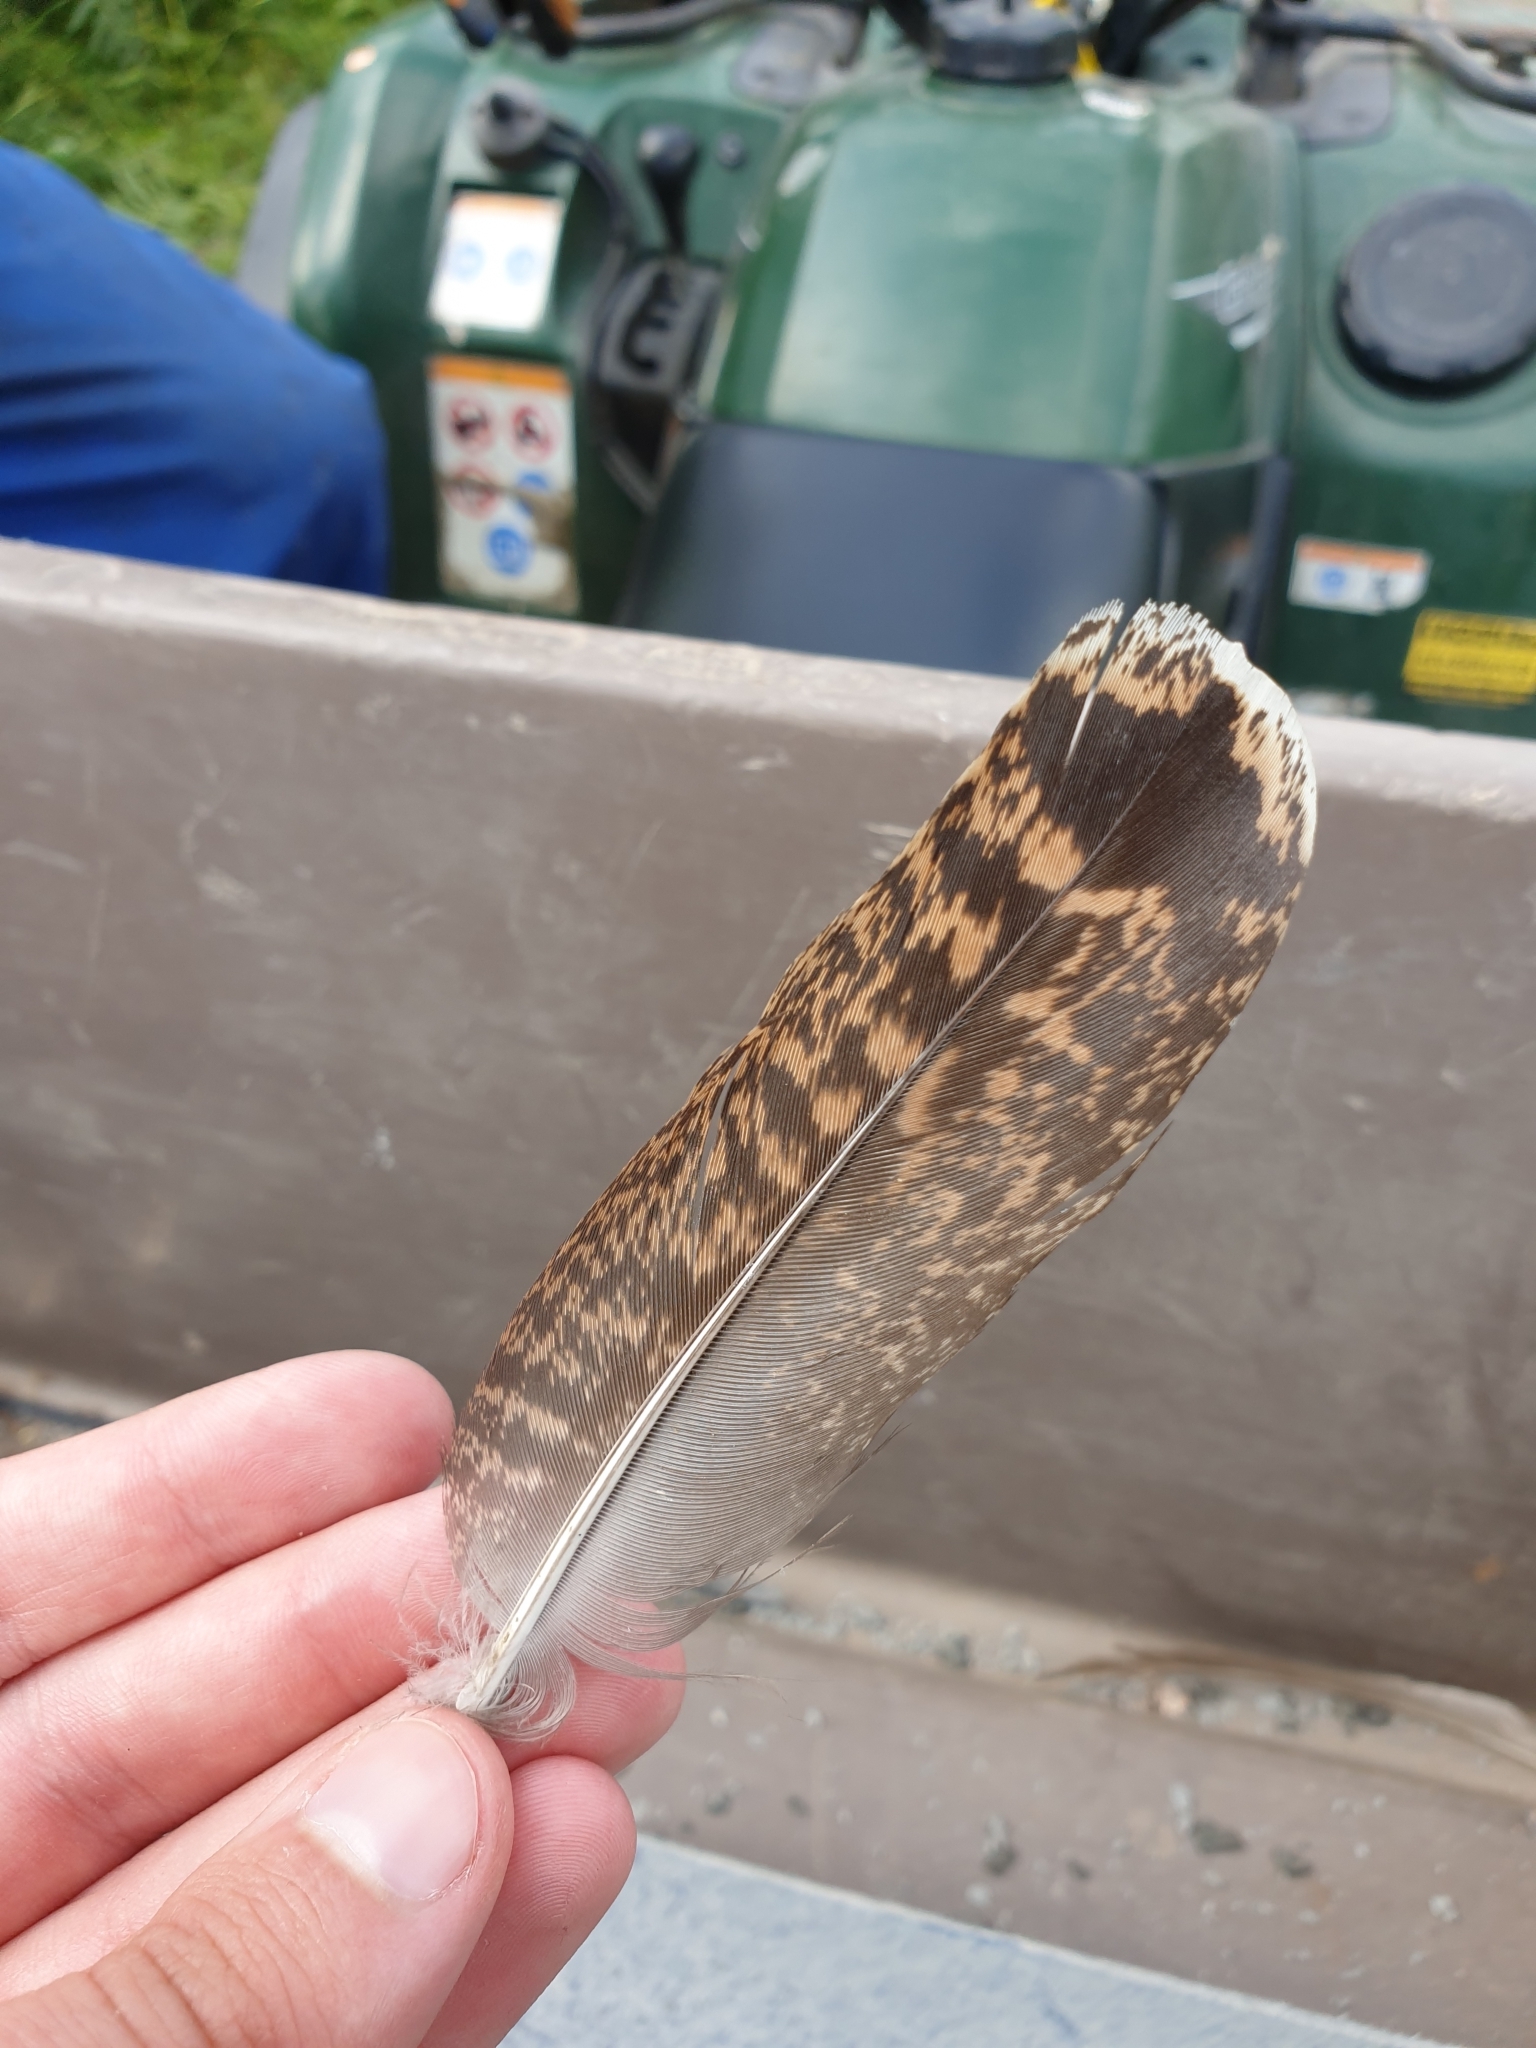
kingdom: Animalia
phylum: Chordata
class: Aves
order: Charadriiformes
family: Scolopacidae
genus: Scolopax
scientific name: Scolopax rusticola
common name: Eurasian woodcock
